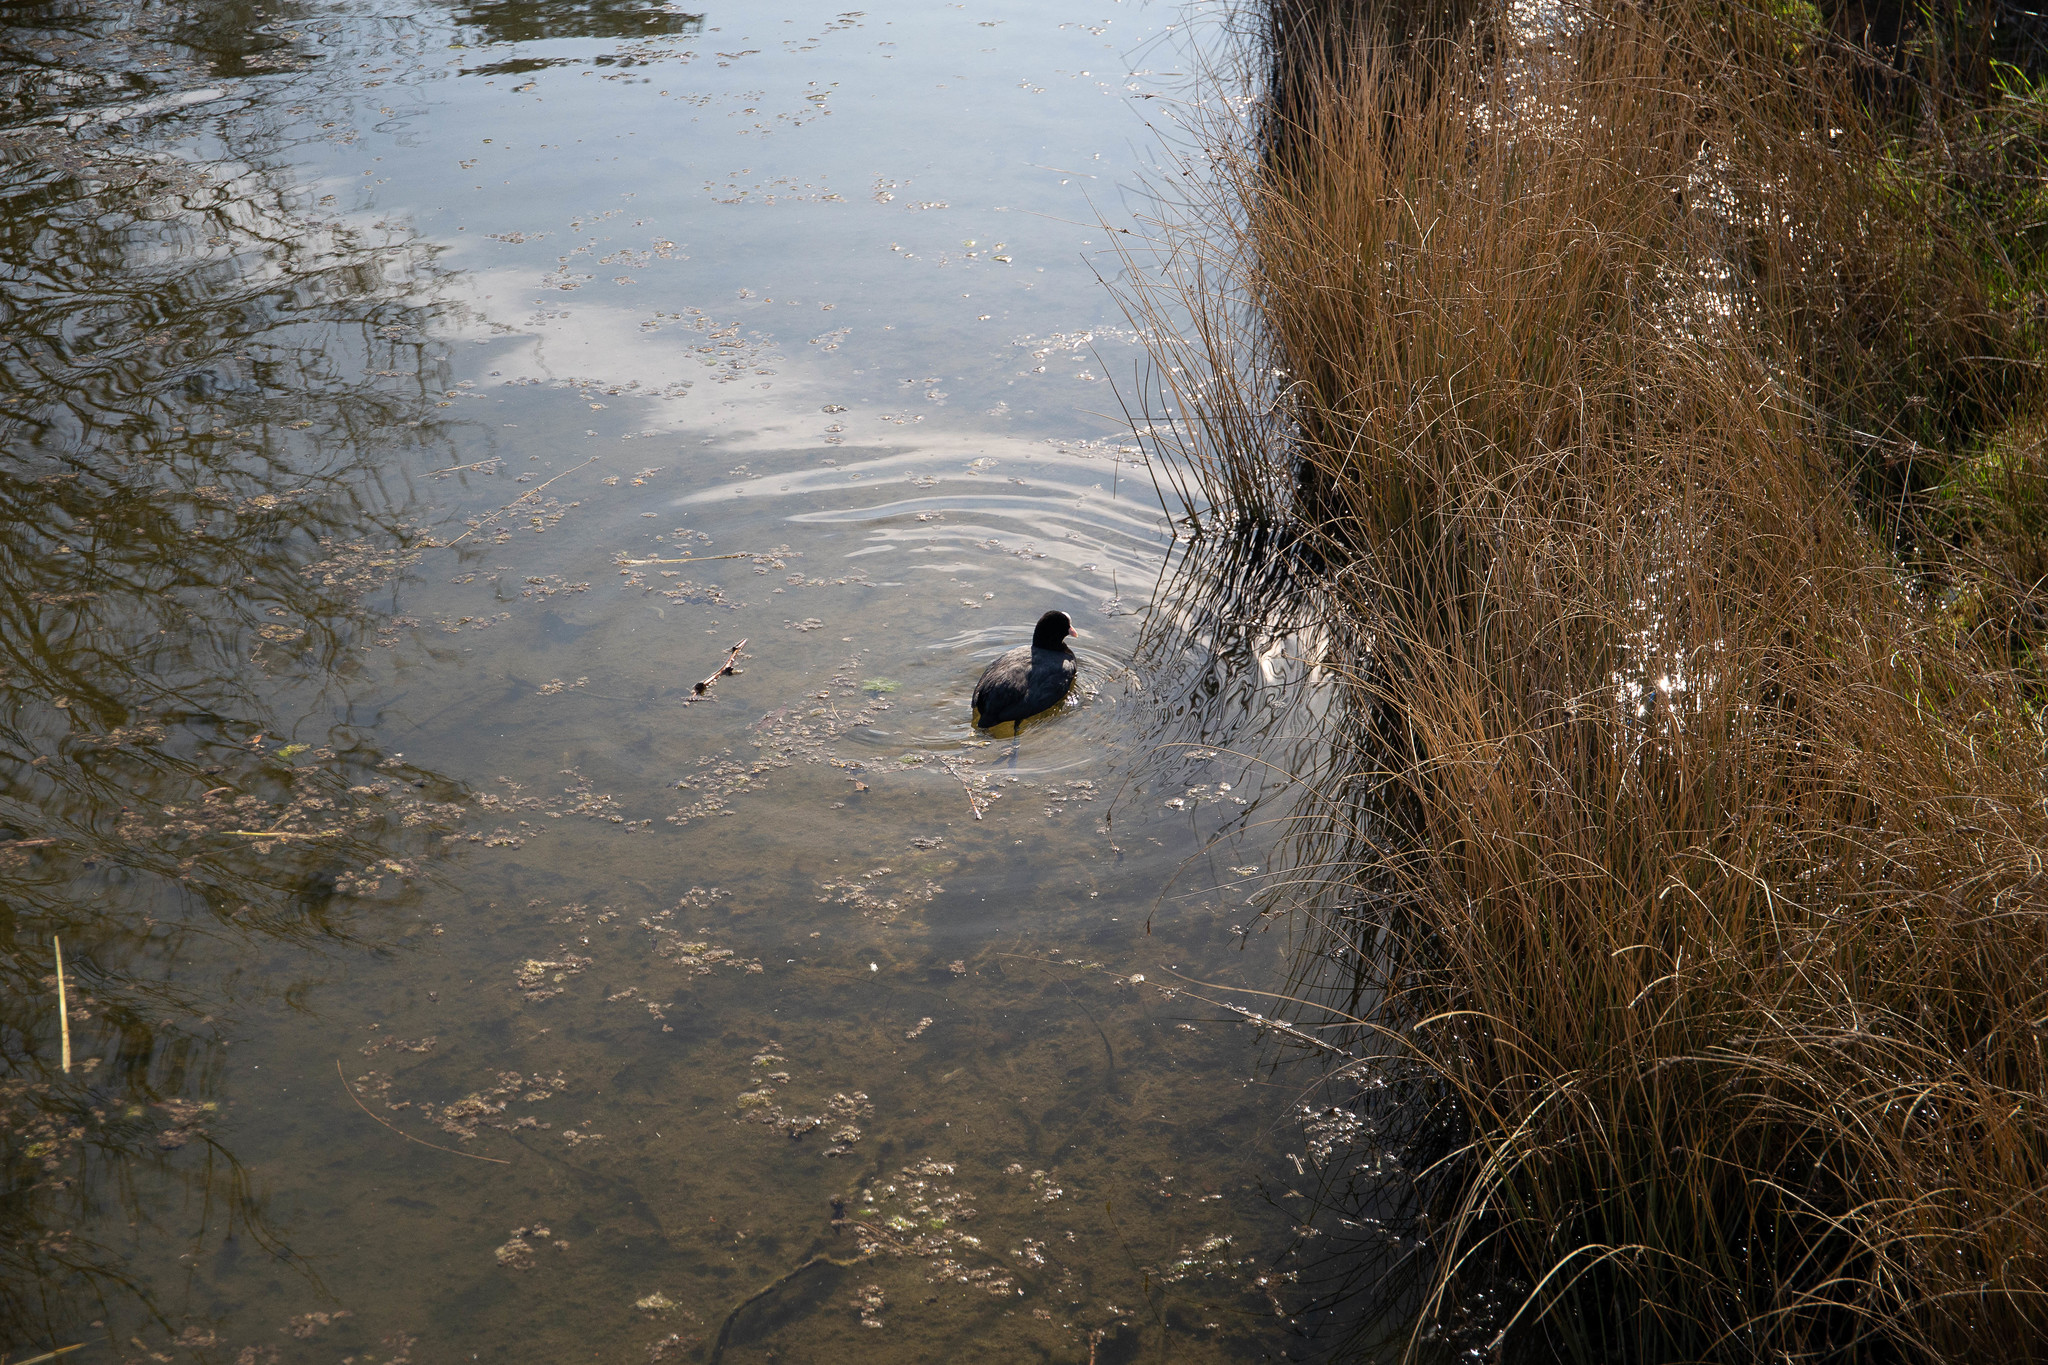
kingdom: Animalia
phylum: Chordata
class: Aves
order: Gruiformes
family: Rallidae
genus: Fulica
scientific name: Fulica atra
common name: Eurasian coot
